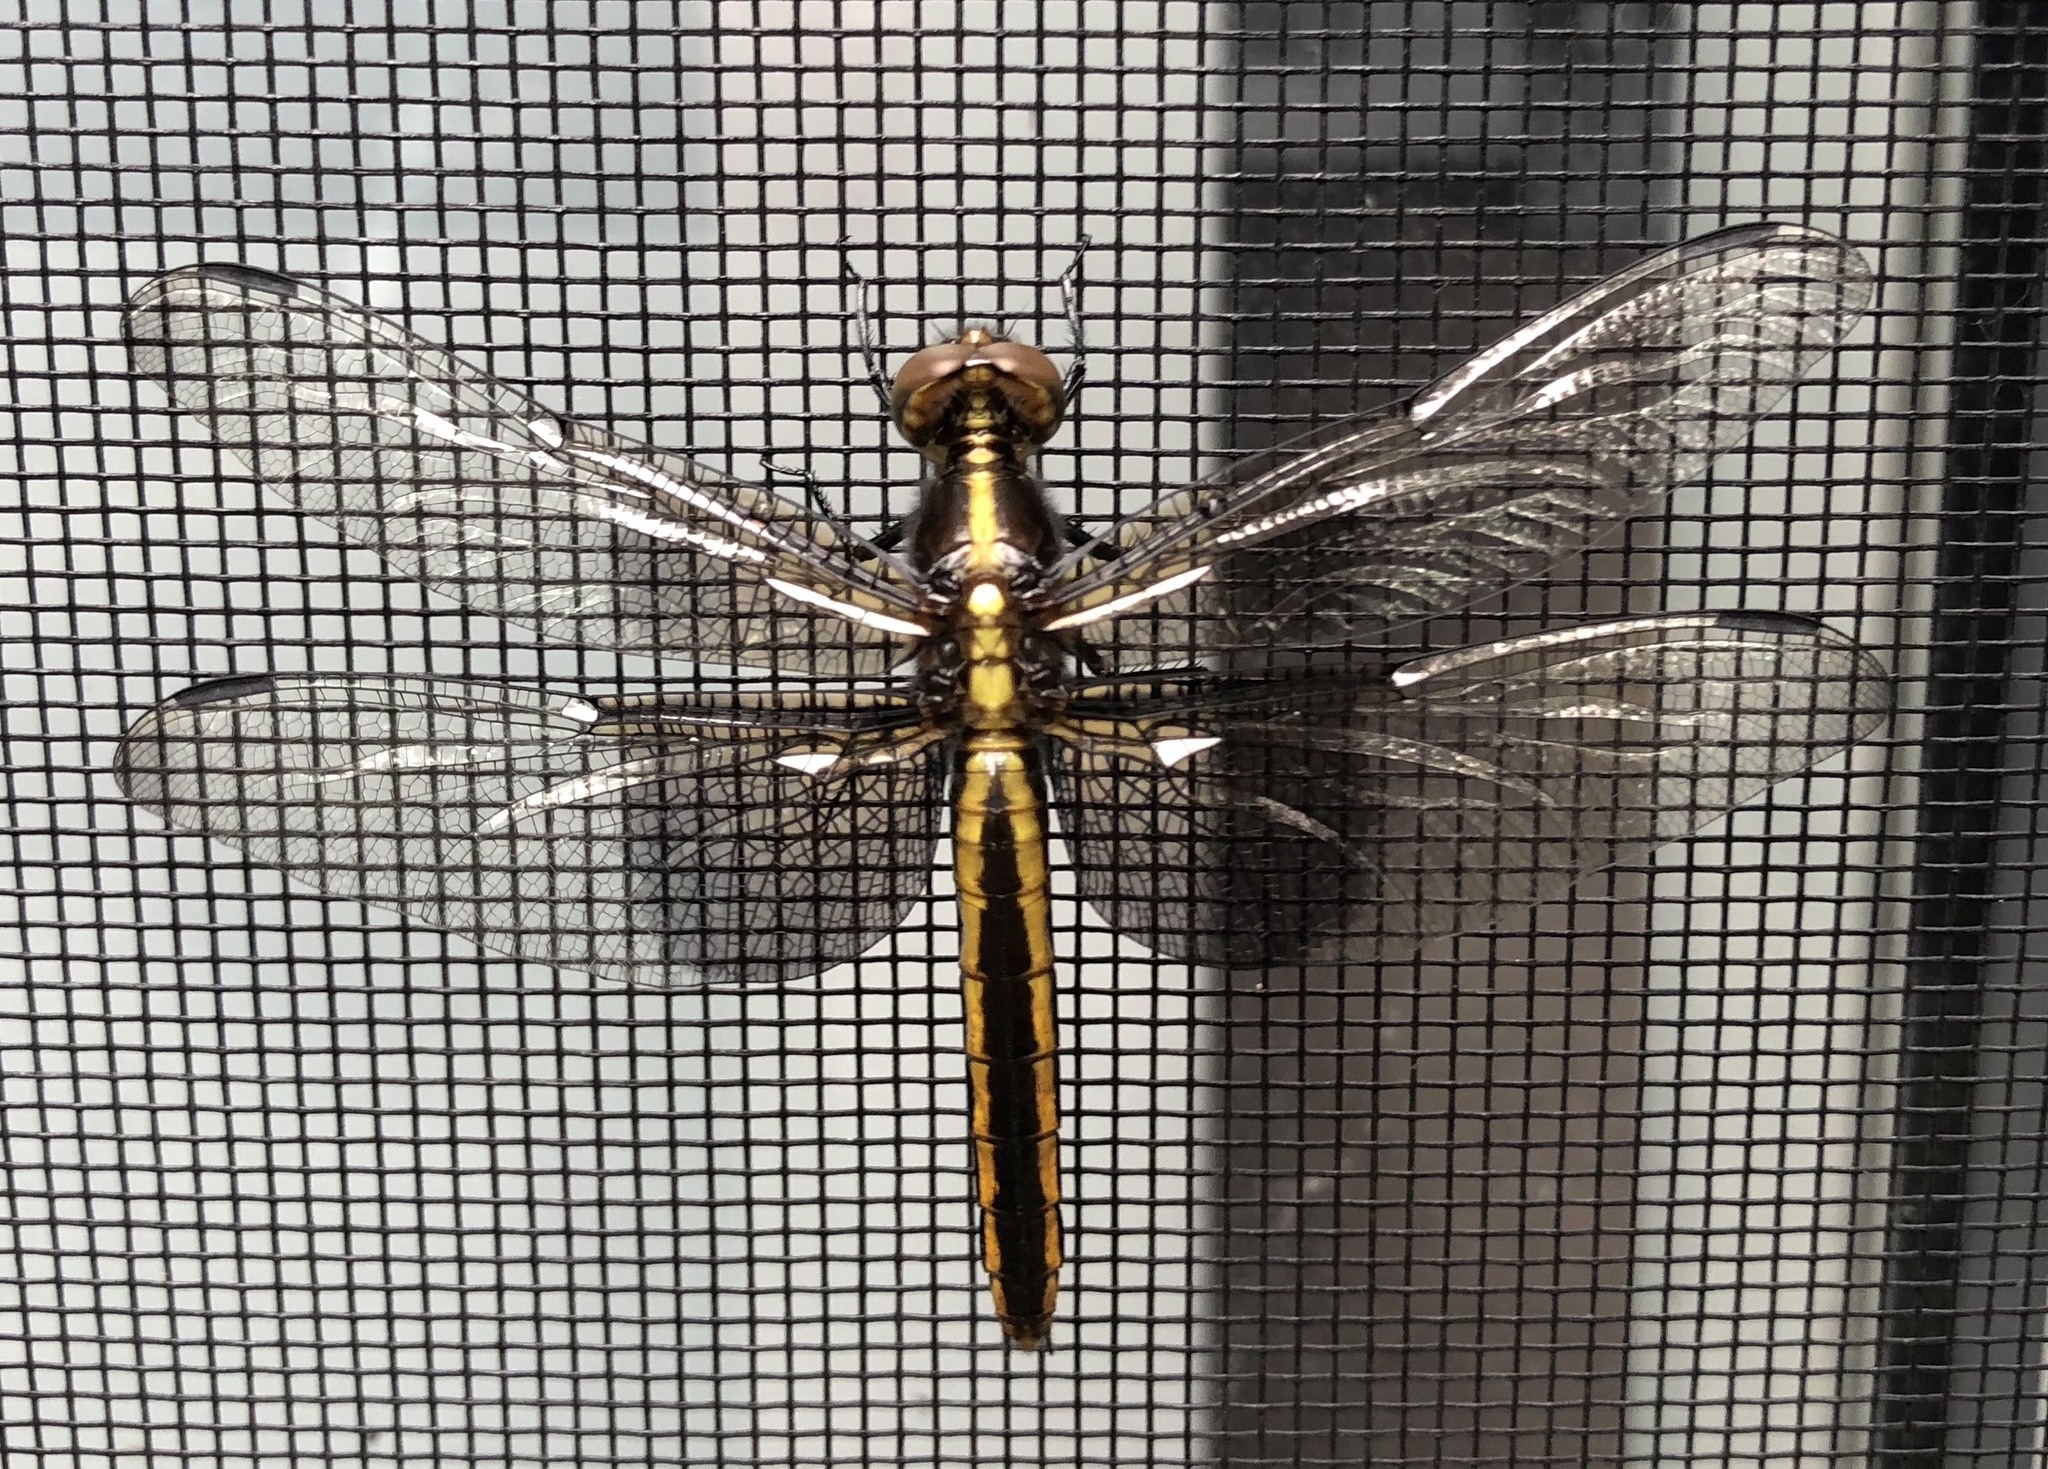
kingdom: Animalia
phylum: Arthropoda
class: Insecta
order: Odonata
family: Libellulidae
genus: Libellula
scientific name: Libellula luctuosa
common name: Widow skimmer
